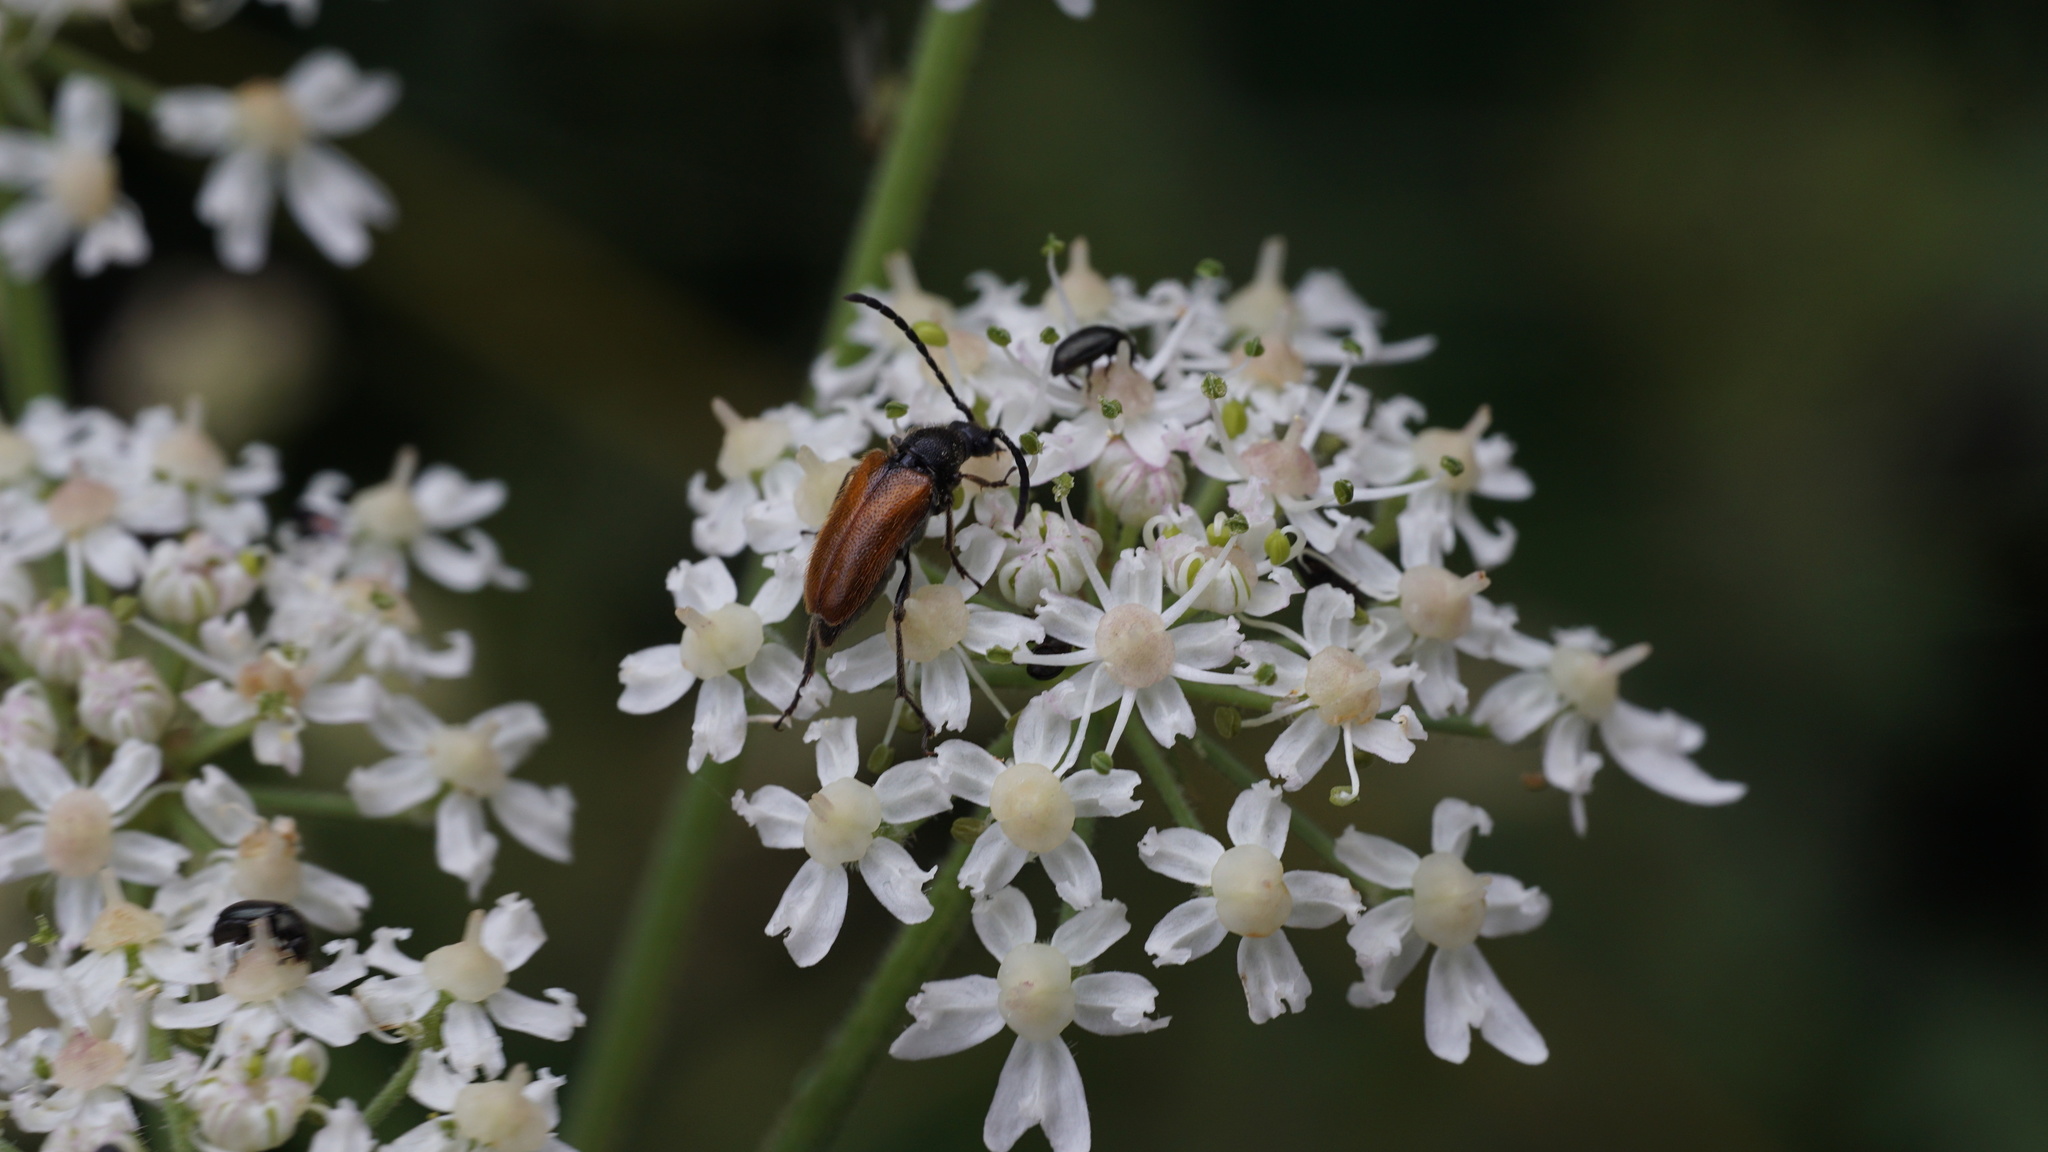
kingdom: Animalia
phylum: Arthropoda
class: Insecta
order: Coleoptera
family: Cerambycidae
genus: Pseudovadonia
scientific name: Pseudovadonia livida
